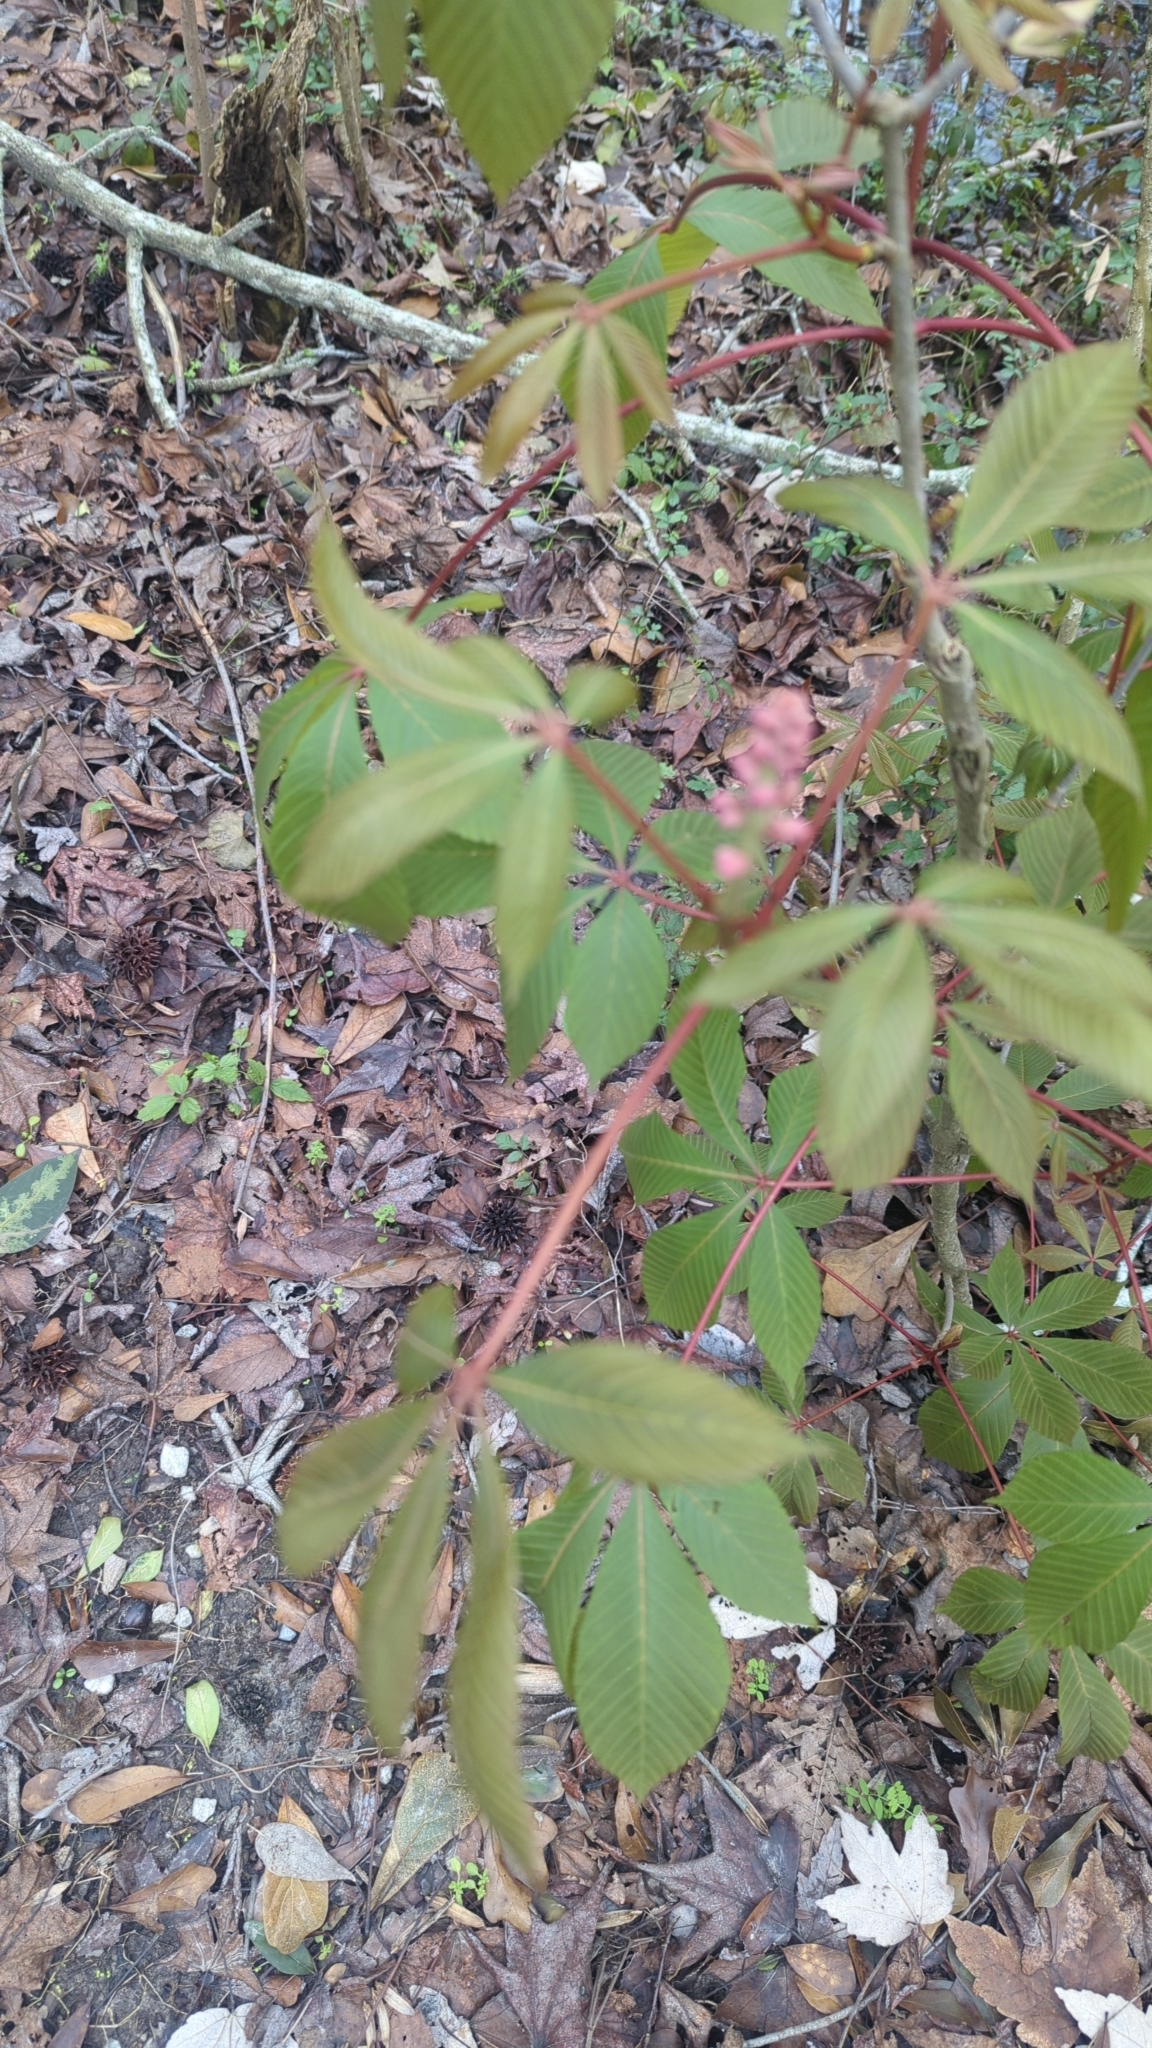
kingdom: Plantae
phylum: Tracheophyta
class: Magnoliopsida
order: Sapindales
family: Sapindaceae
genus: Aesculus
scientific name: Aesculus pavia
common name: Red buckeye
